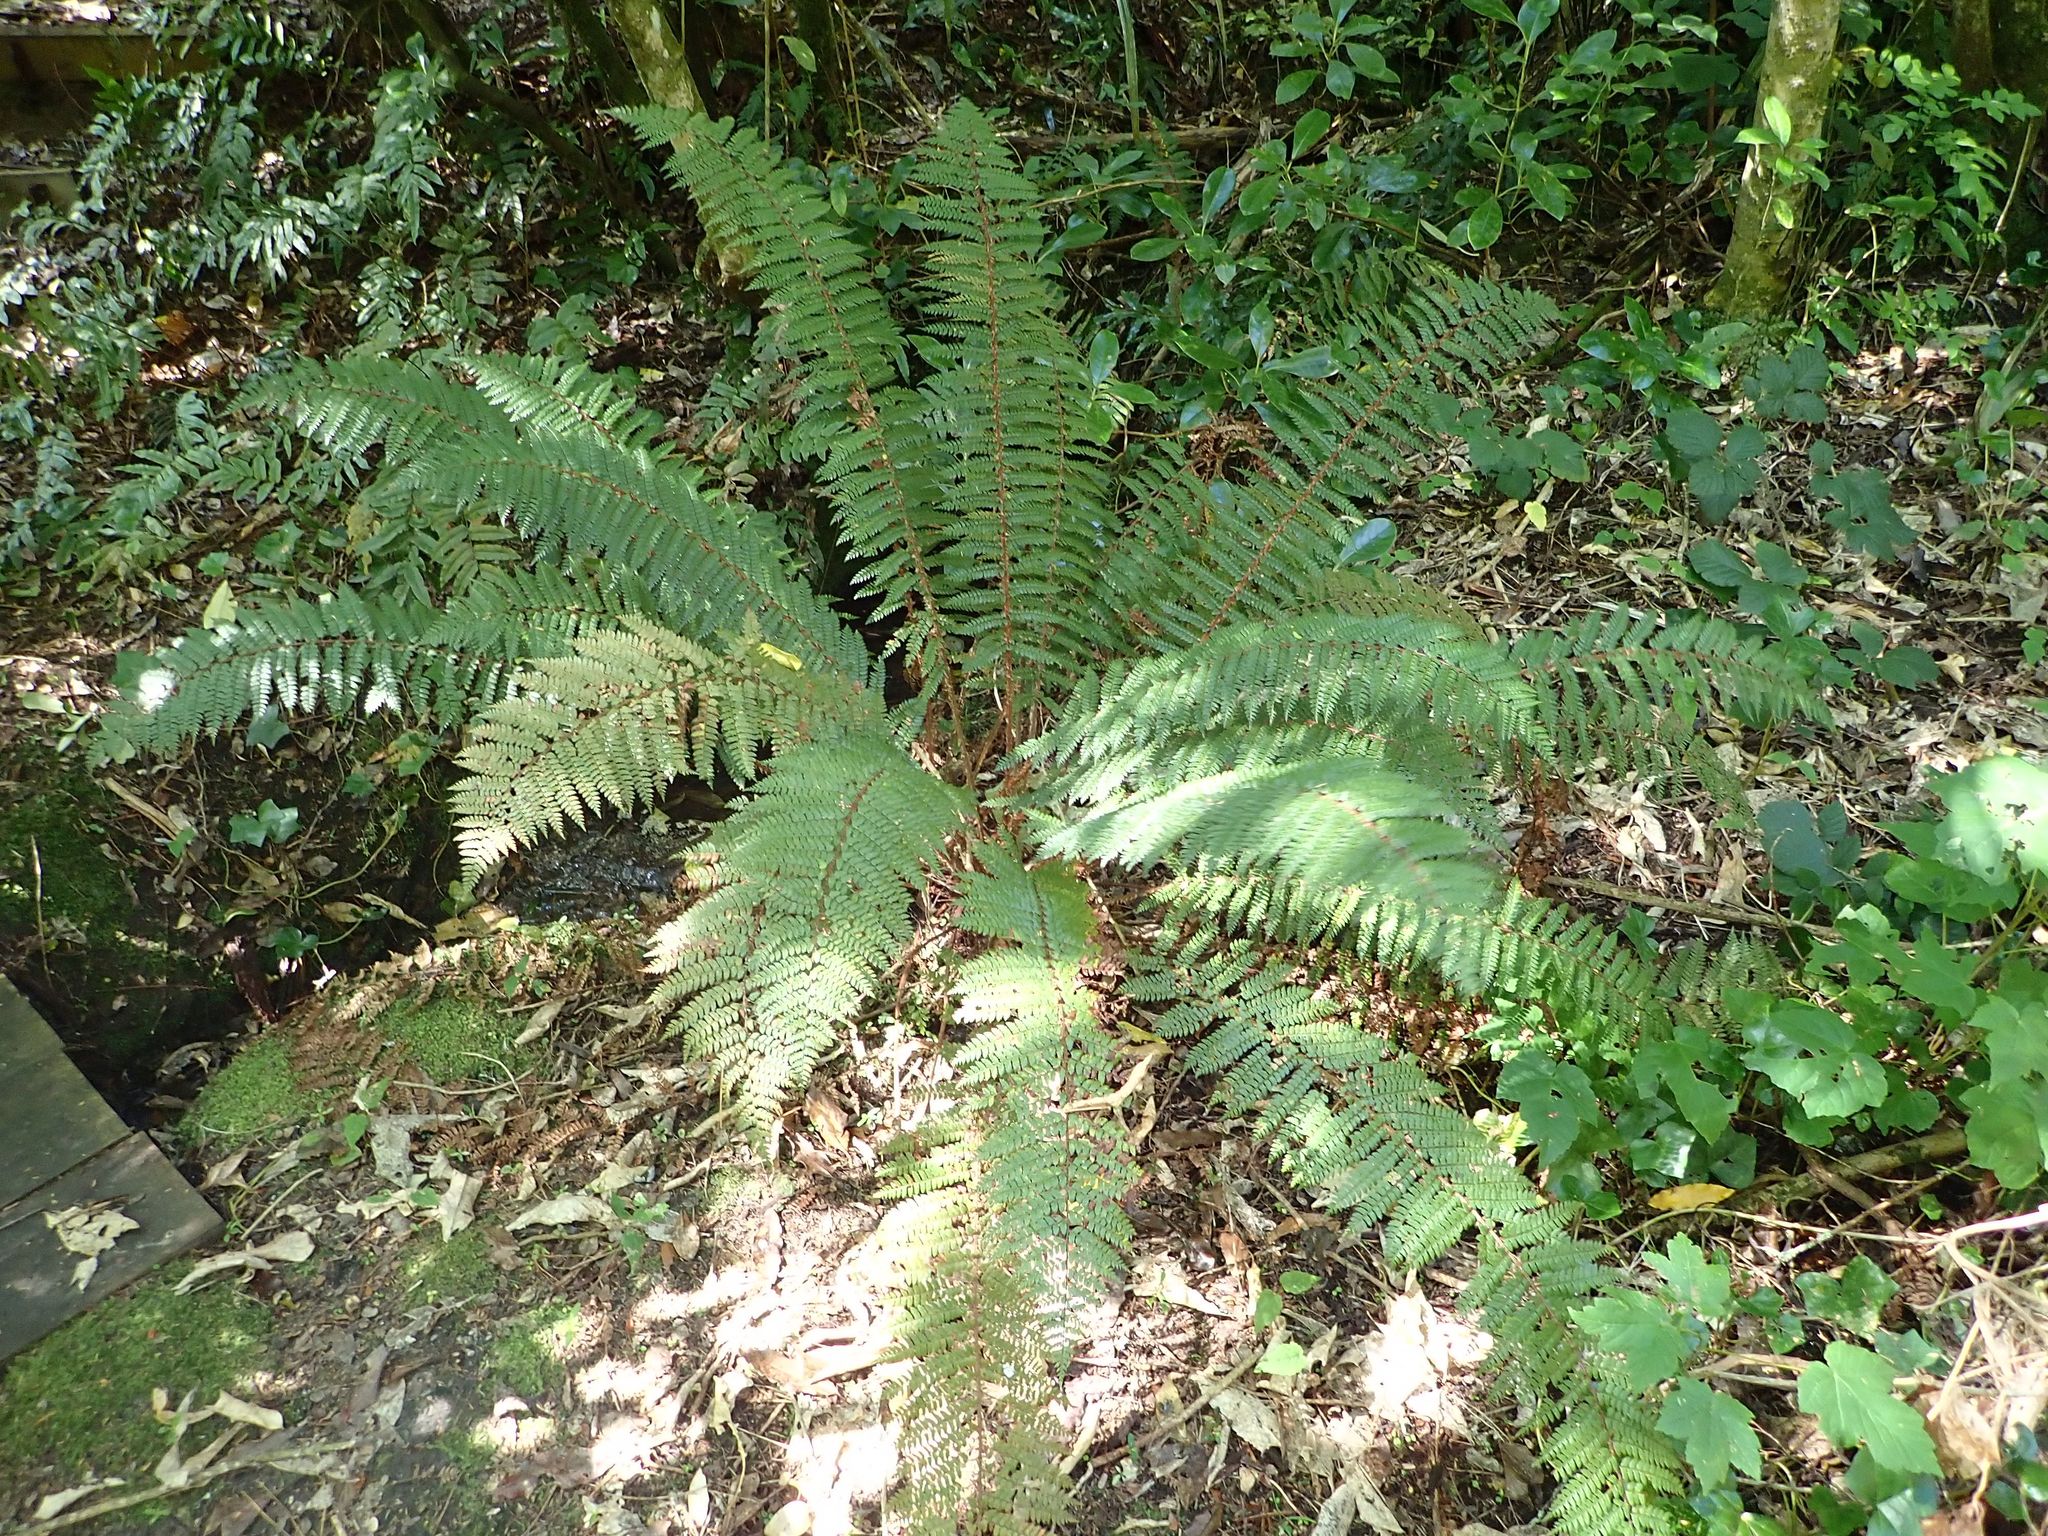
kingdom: Plantae
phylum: Tracheophyta
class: Polypodiopsida
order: Polypodiales
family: Dryopteridaceae
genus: Polystichum
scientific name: Polystichum vestitum
